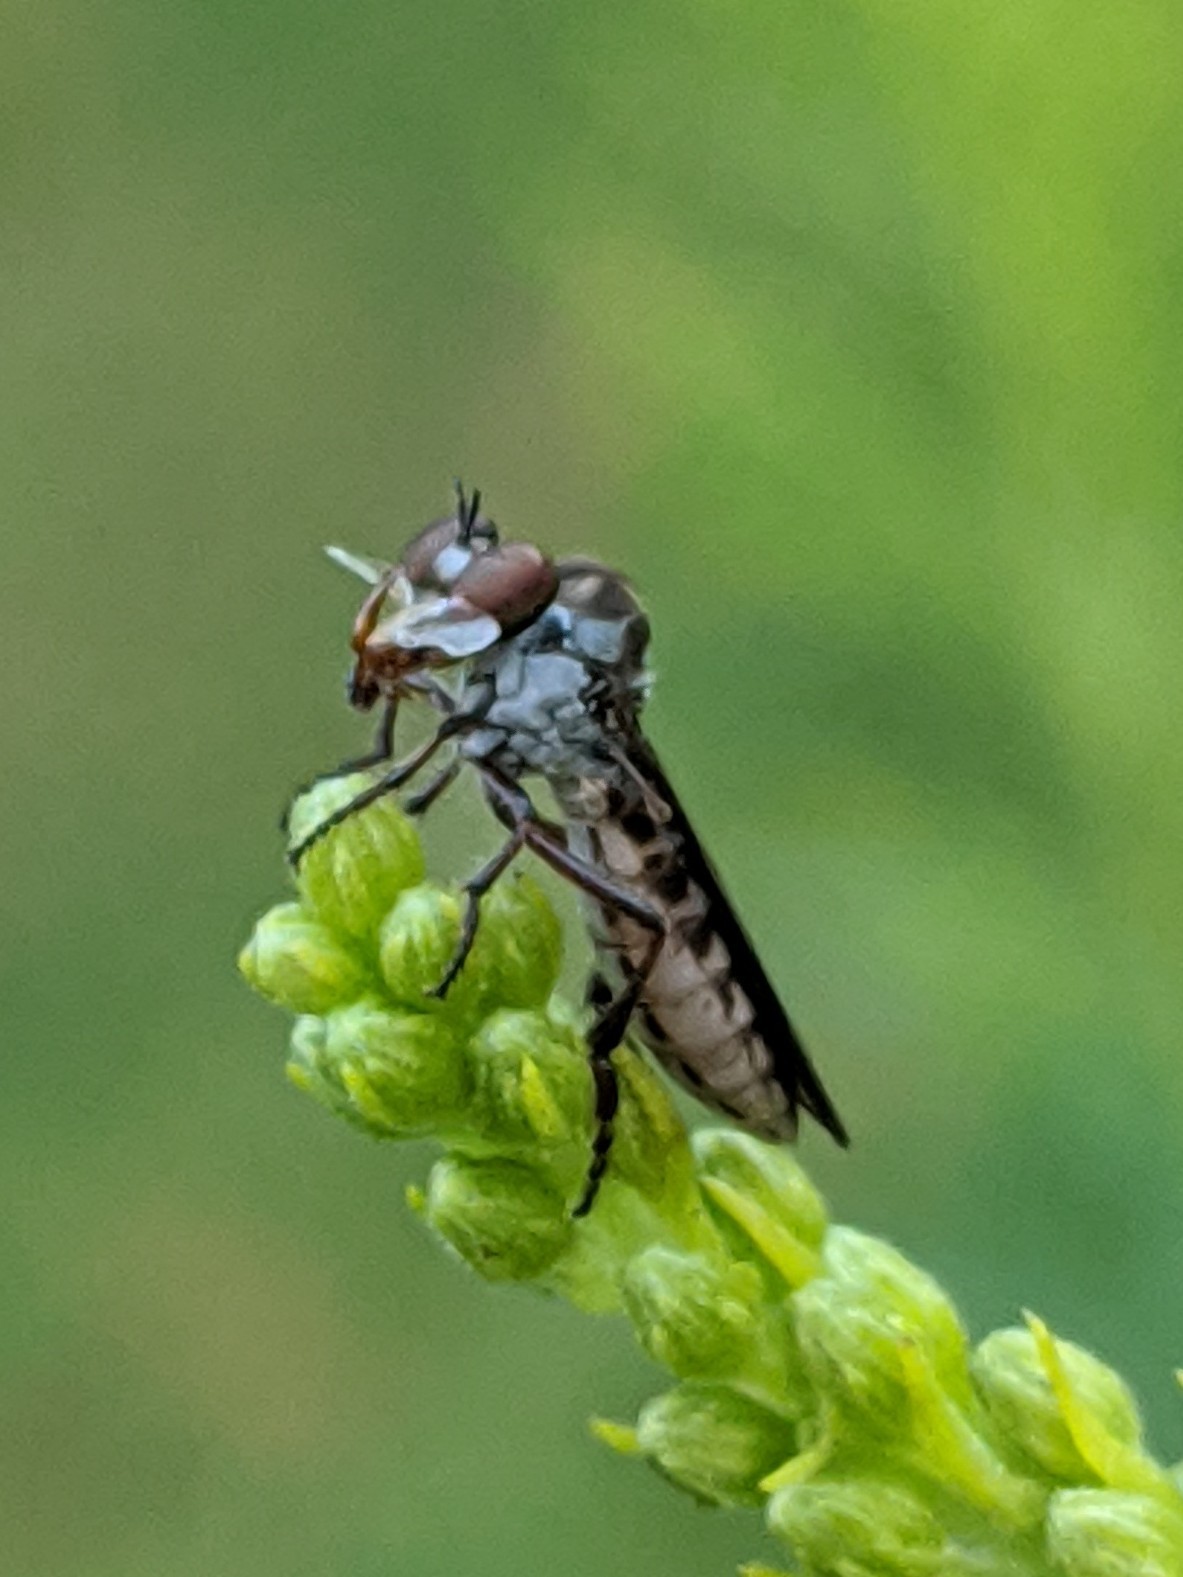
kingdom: Animalia
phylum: Arthropoda
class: Insecta
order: Diptera
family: Asilidae
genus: Holcocephala
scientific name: Holcocephala calva
